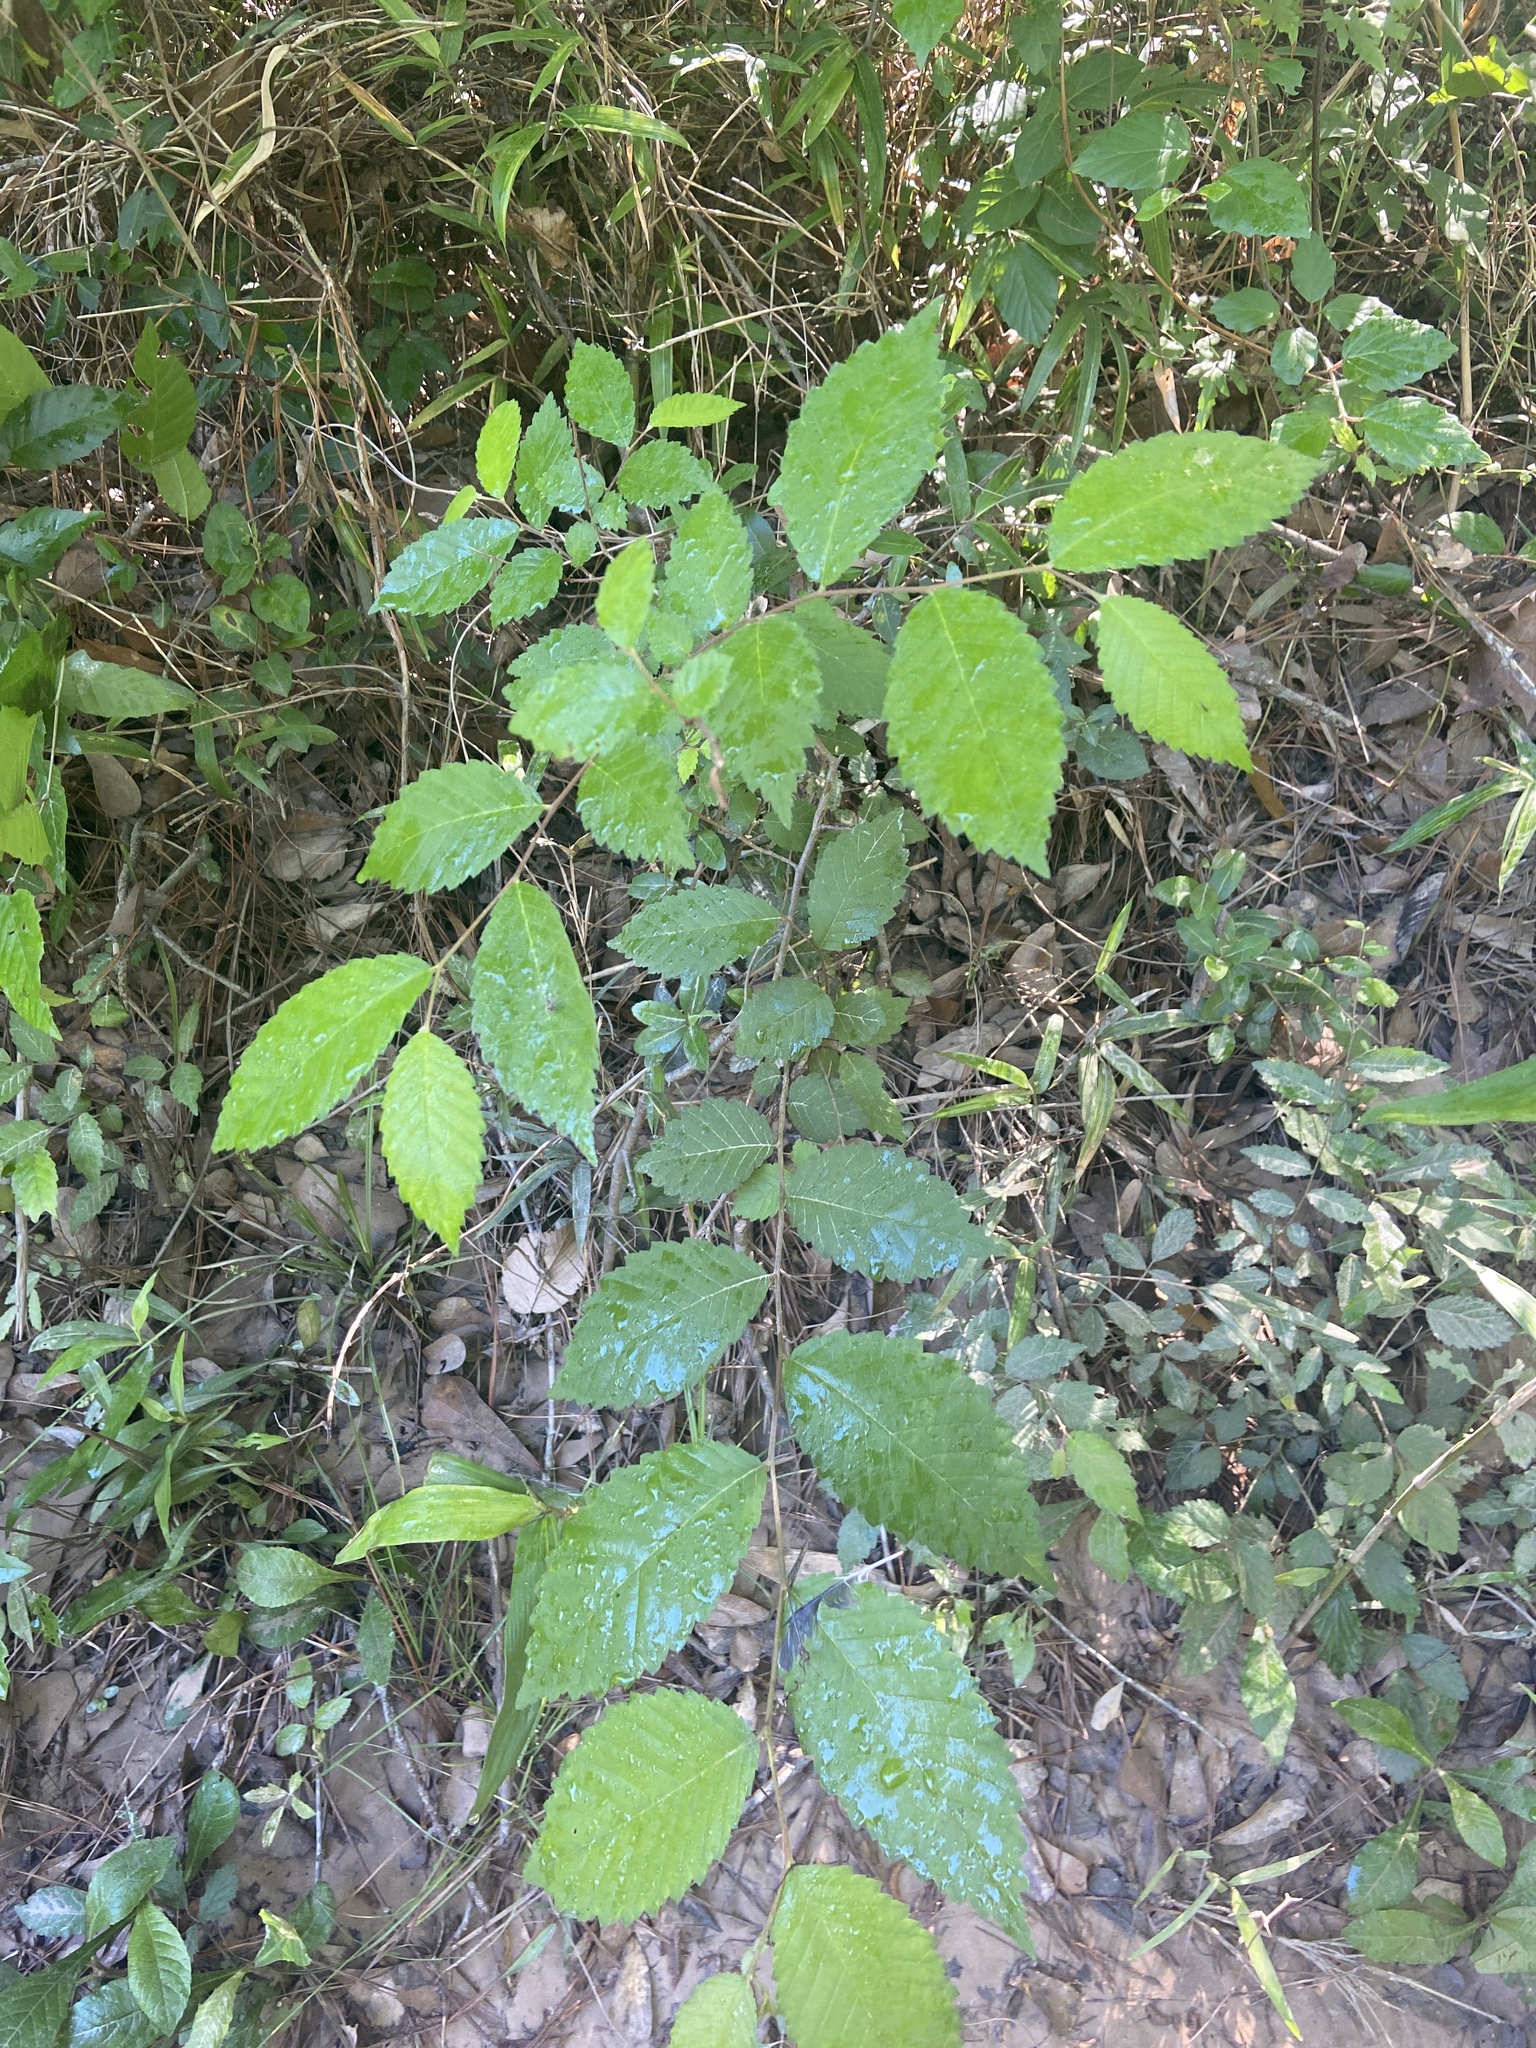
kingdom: Plantae
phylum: Tracheophyta
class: Magnoliopsida
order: Rosales
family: Ulmaceae
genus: Ulmus
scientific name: Ulmus americana
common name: American elm
